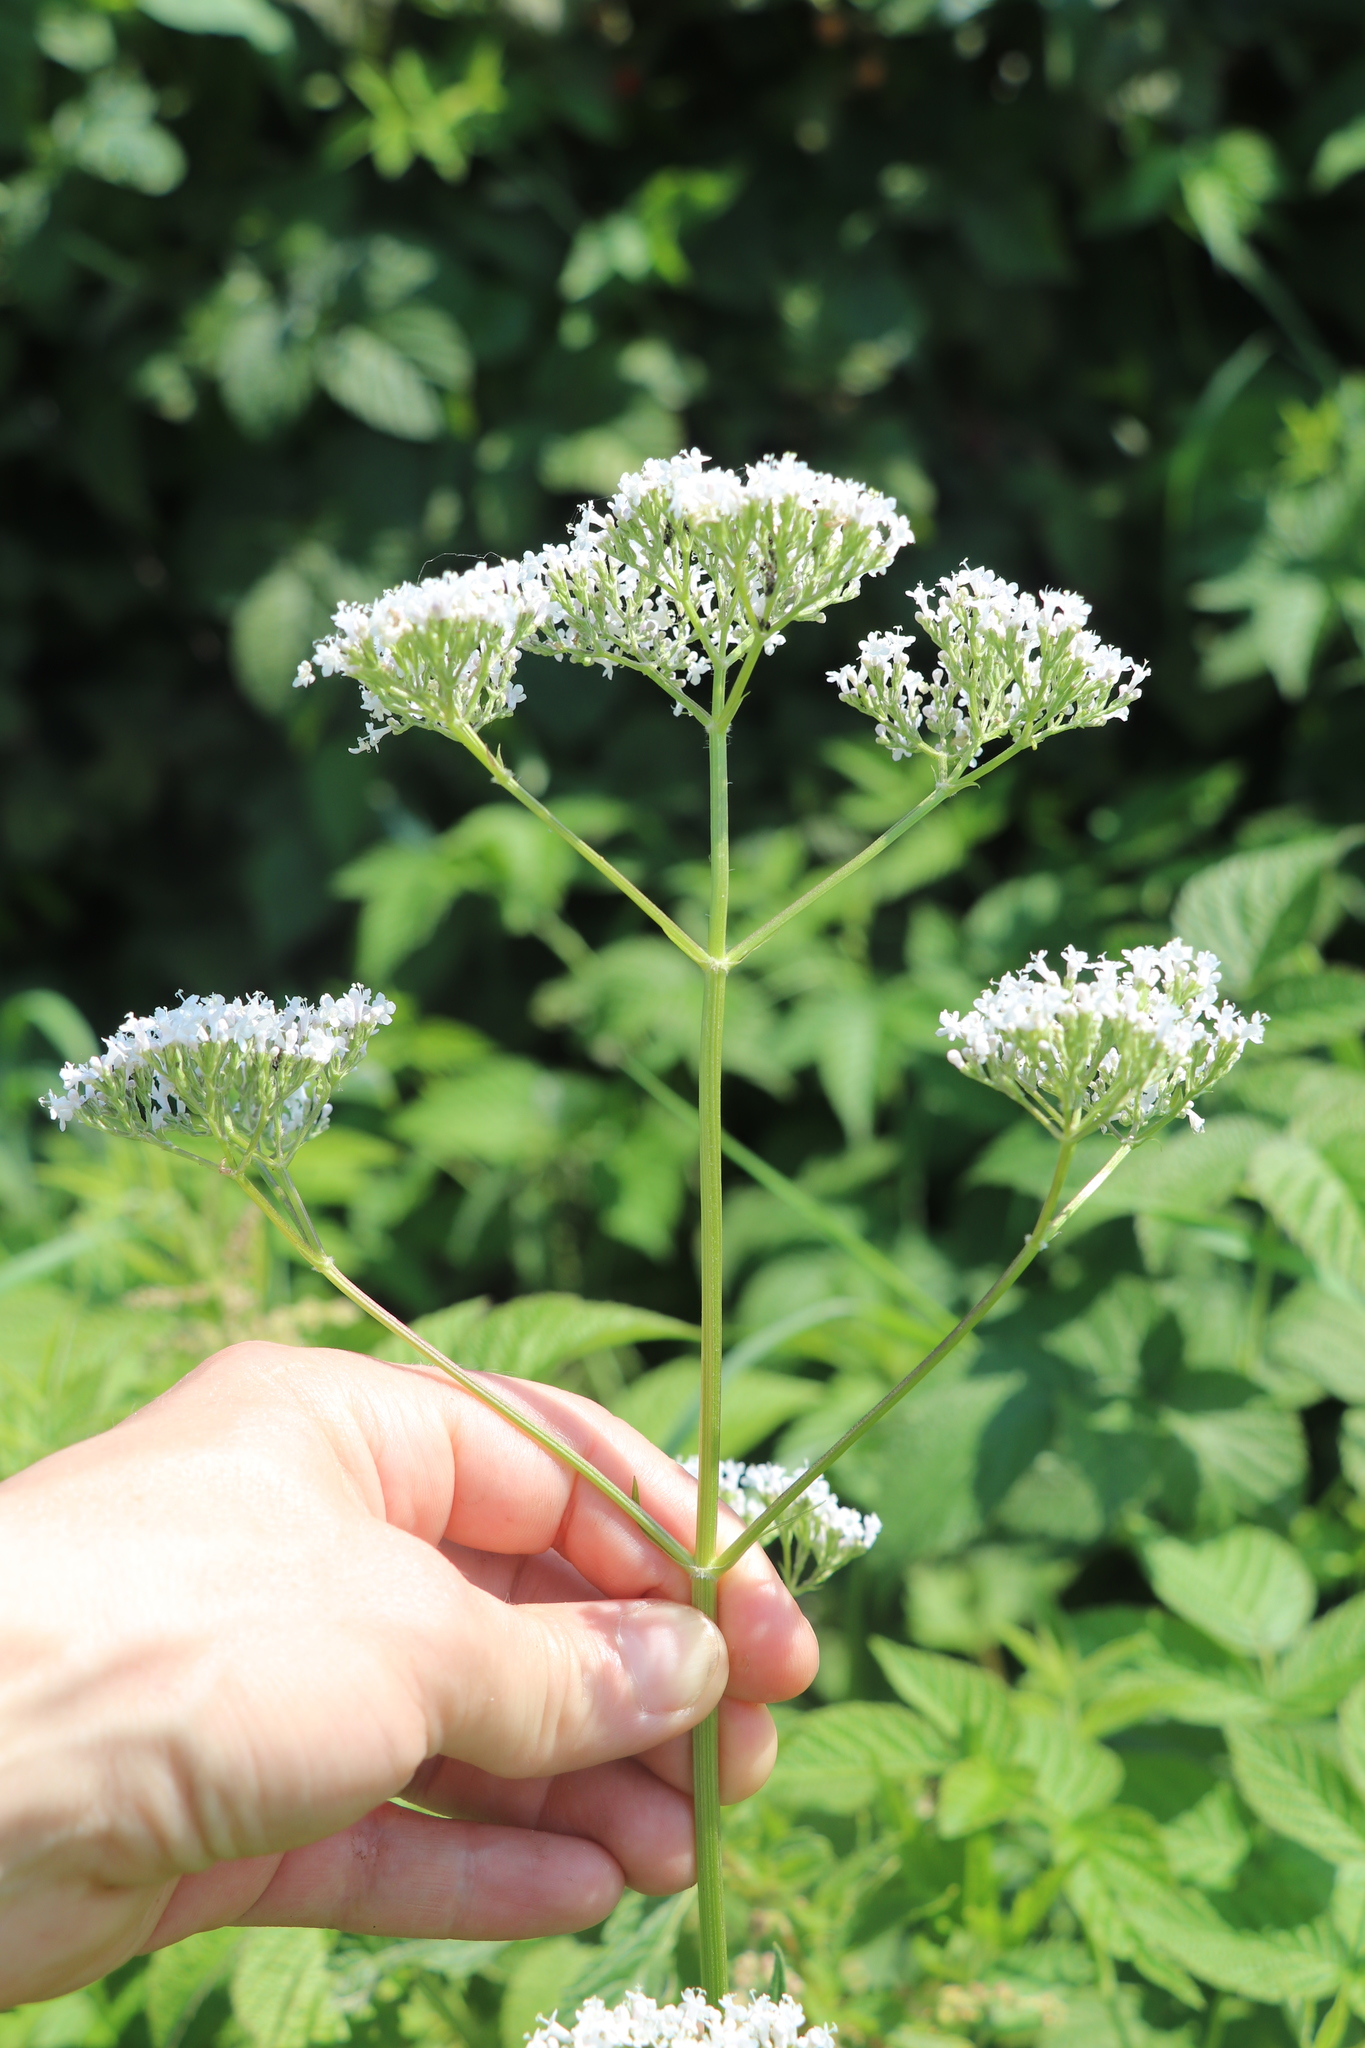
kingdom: Plantae
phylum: Tracheophyta
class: Magnoliopsida
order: Dipsacales
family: Caprifoliaceae
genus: Valeriana
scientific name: Valeriana officinalis
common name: Common valerian
